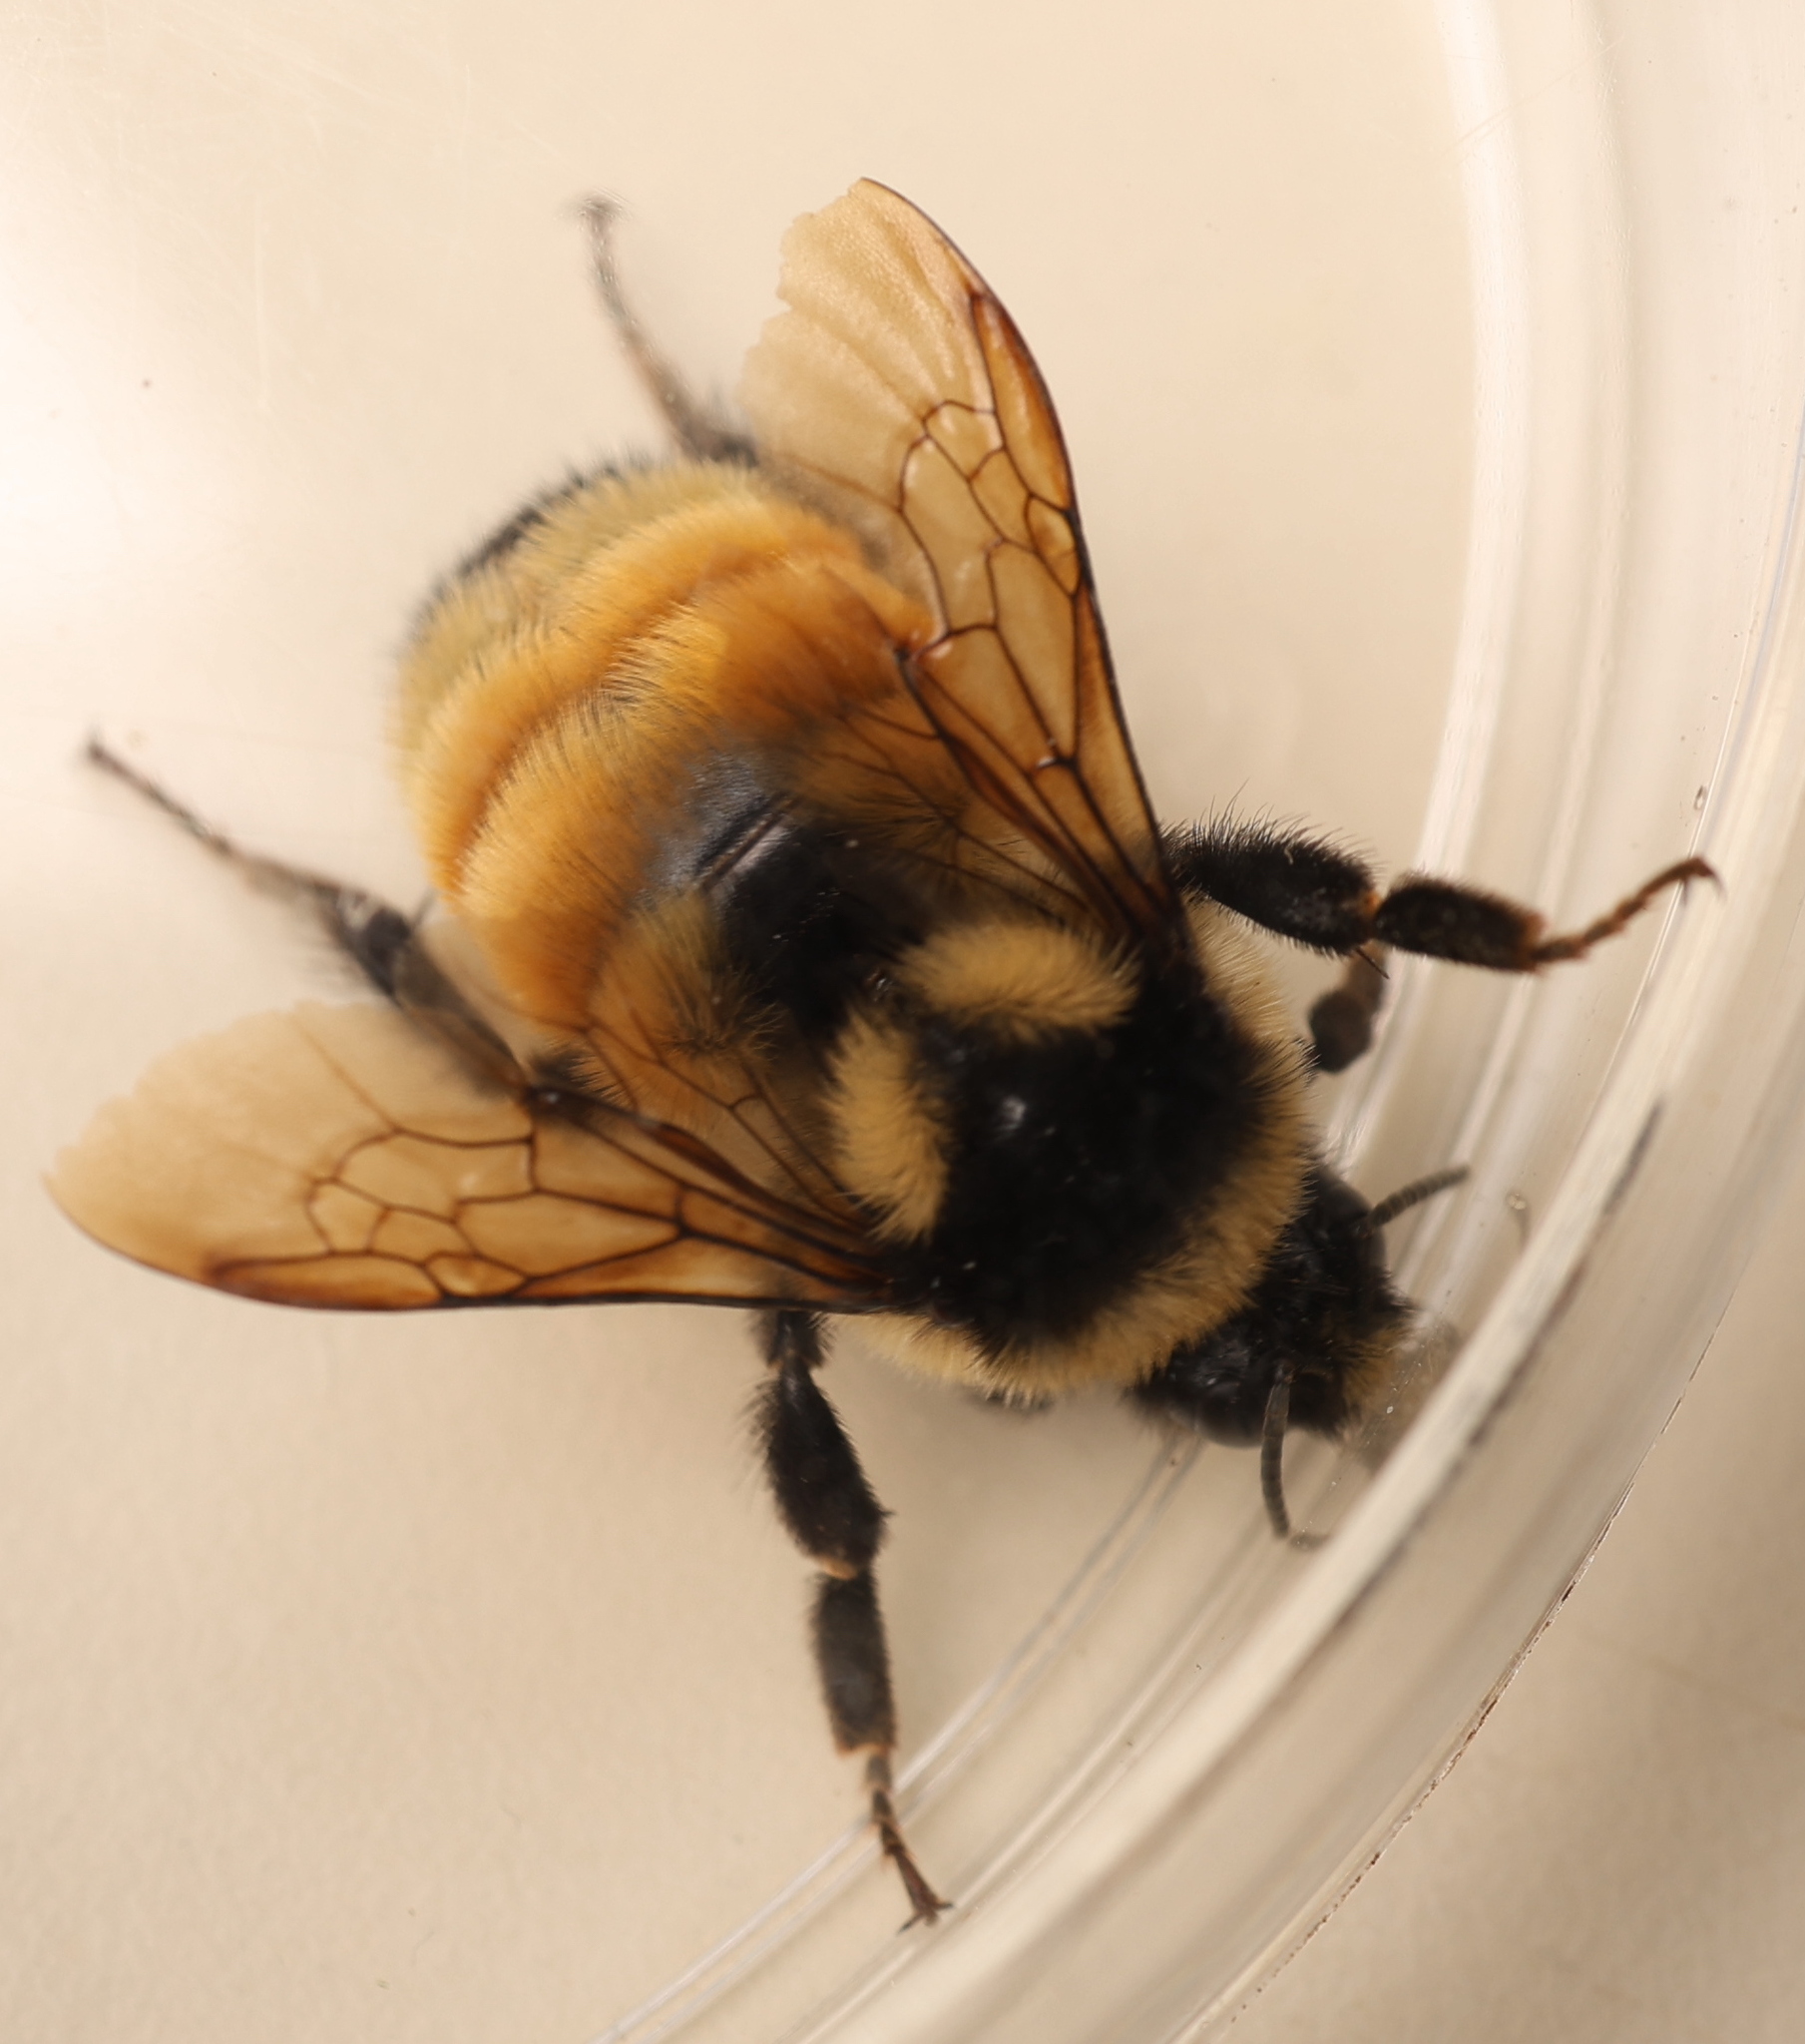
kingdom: Animalia
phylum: Arthropoda
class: Insecta
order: Hymenoptera
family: Apidae
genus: Bombus
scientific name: Bombus ternarius
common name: Tri-colored bumble bee
